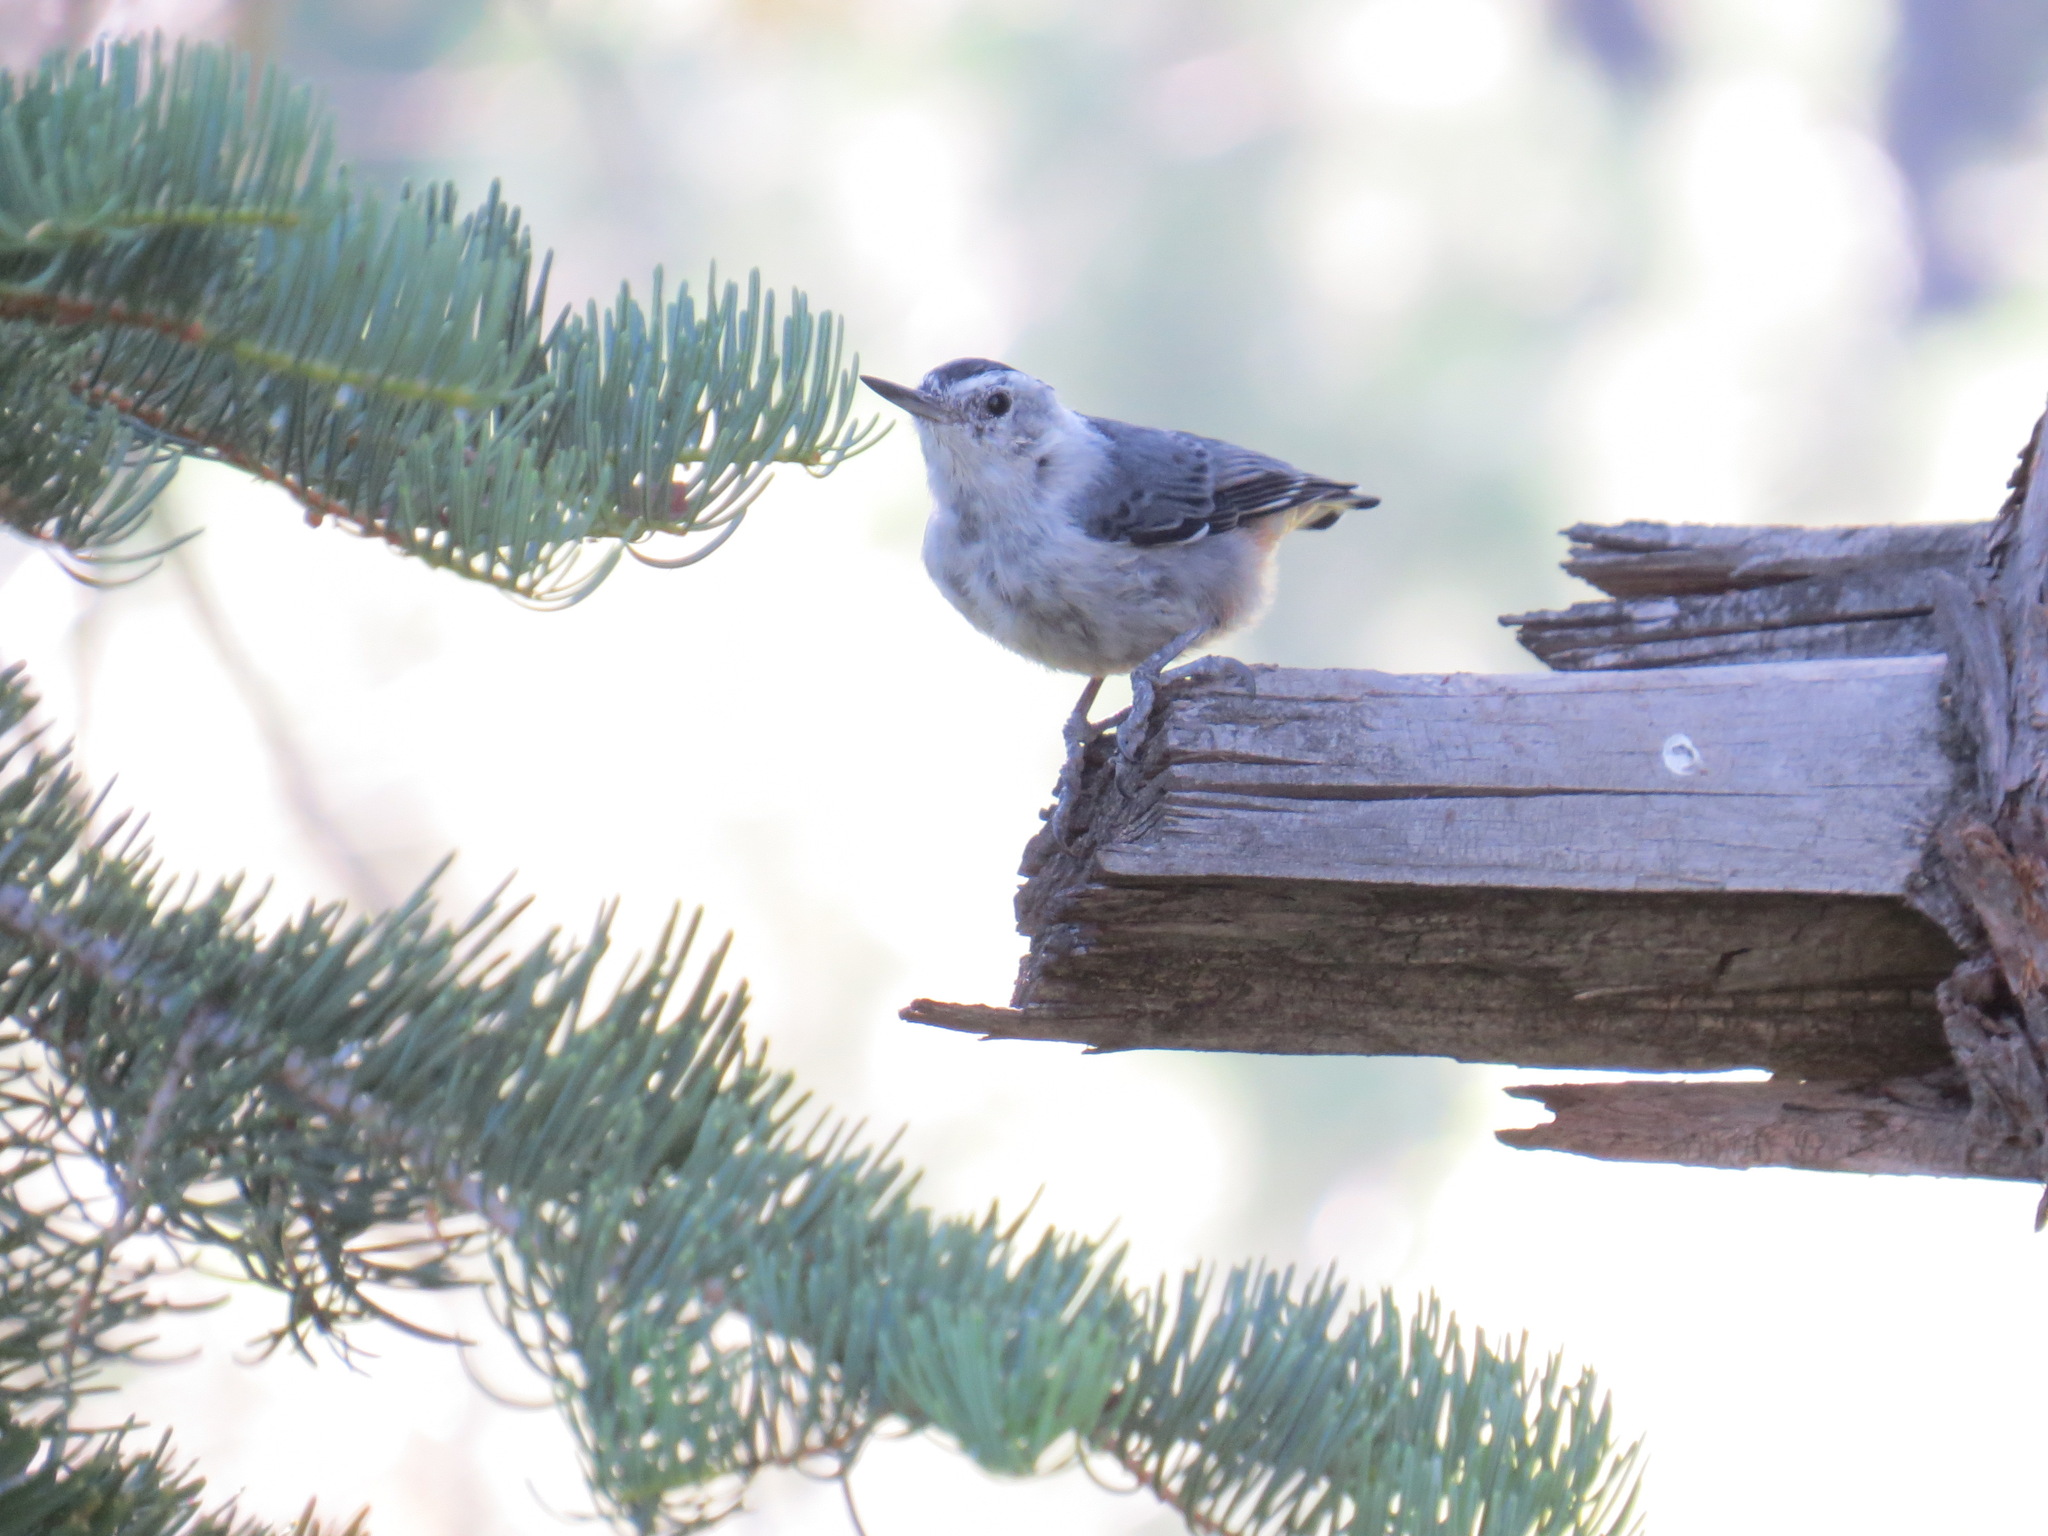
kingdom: Animalia
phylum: Chordata
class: Aves
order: Passeriformes
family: Sittidae
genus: Sitta
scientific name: Sitta carolinensis
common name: White-breasted nuthatch
